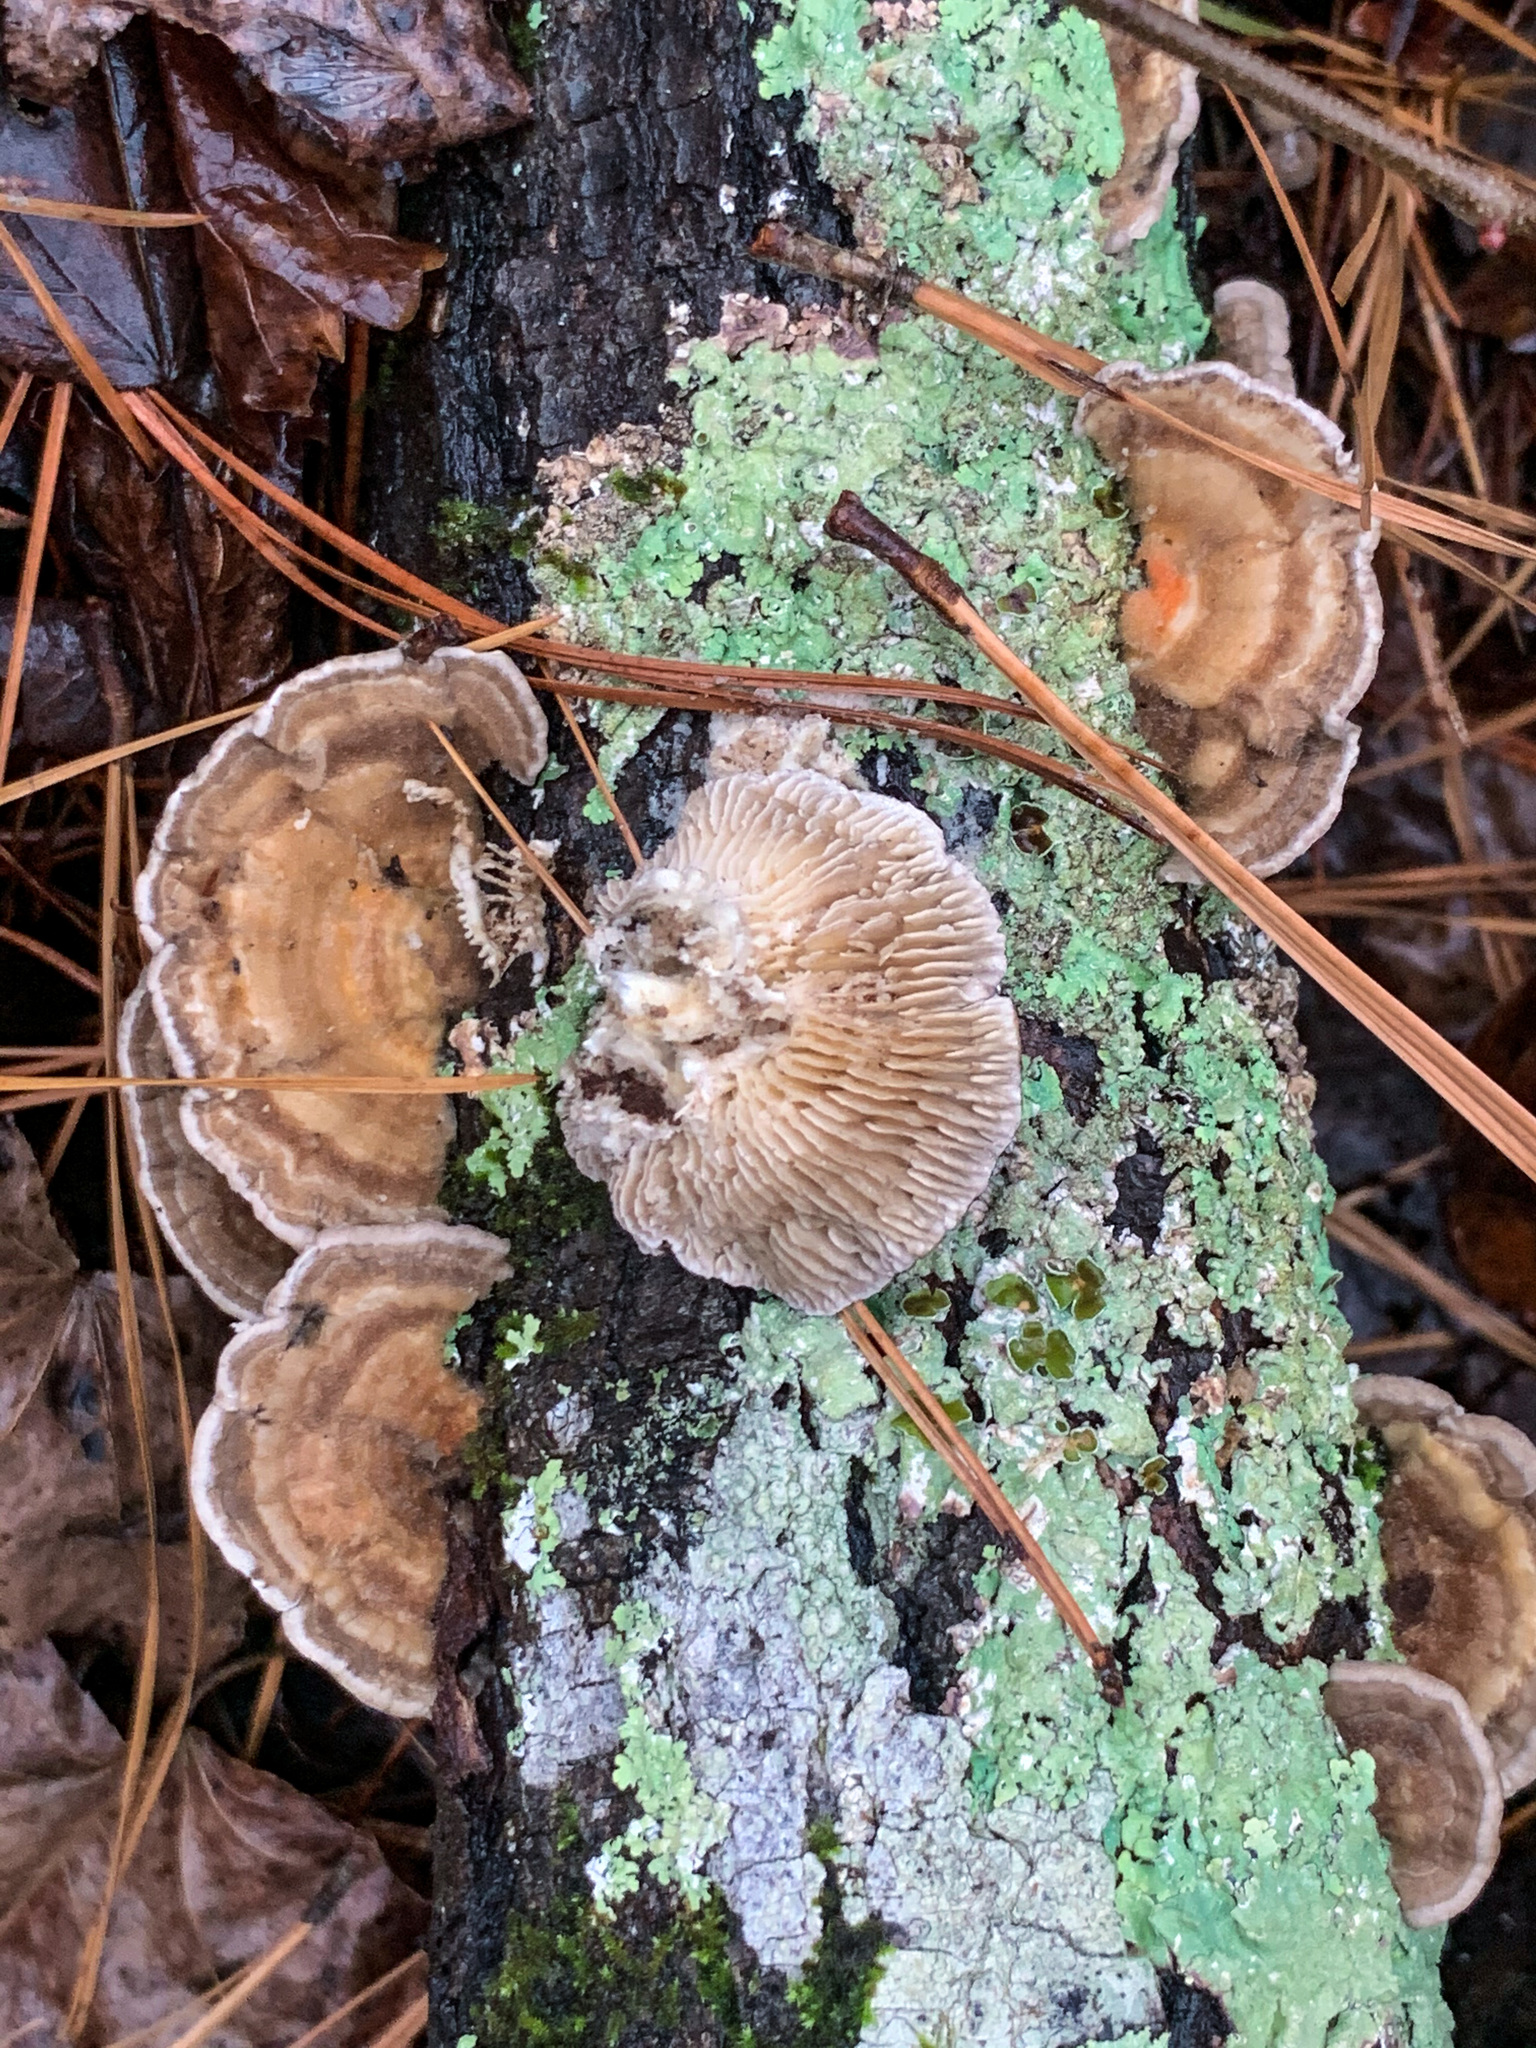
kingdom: Fungi
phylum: Basidiomycota
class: Agaricomycetes
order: Polyporales
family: Polyporaceae
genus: Lenzites
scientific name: Lenzites betulinus
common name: Birch mazegill
